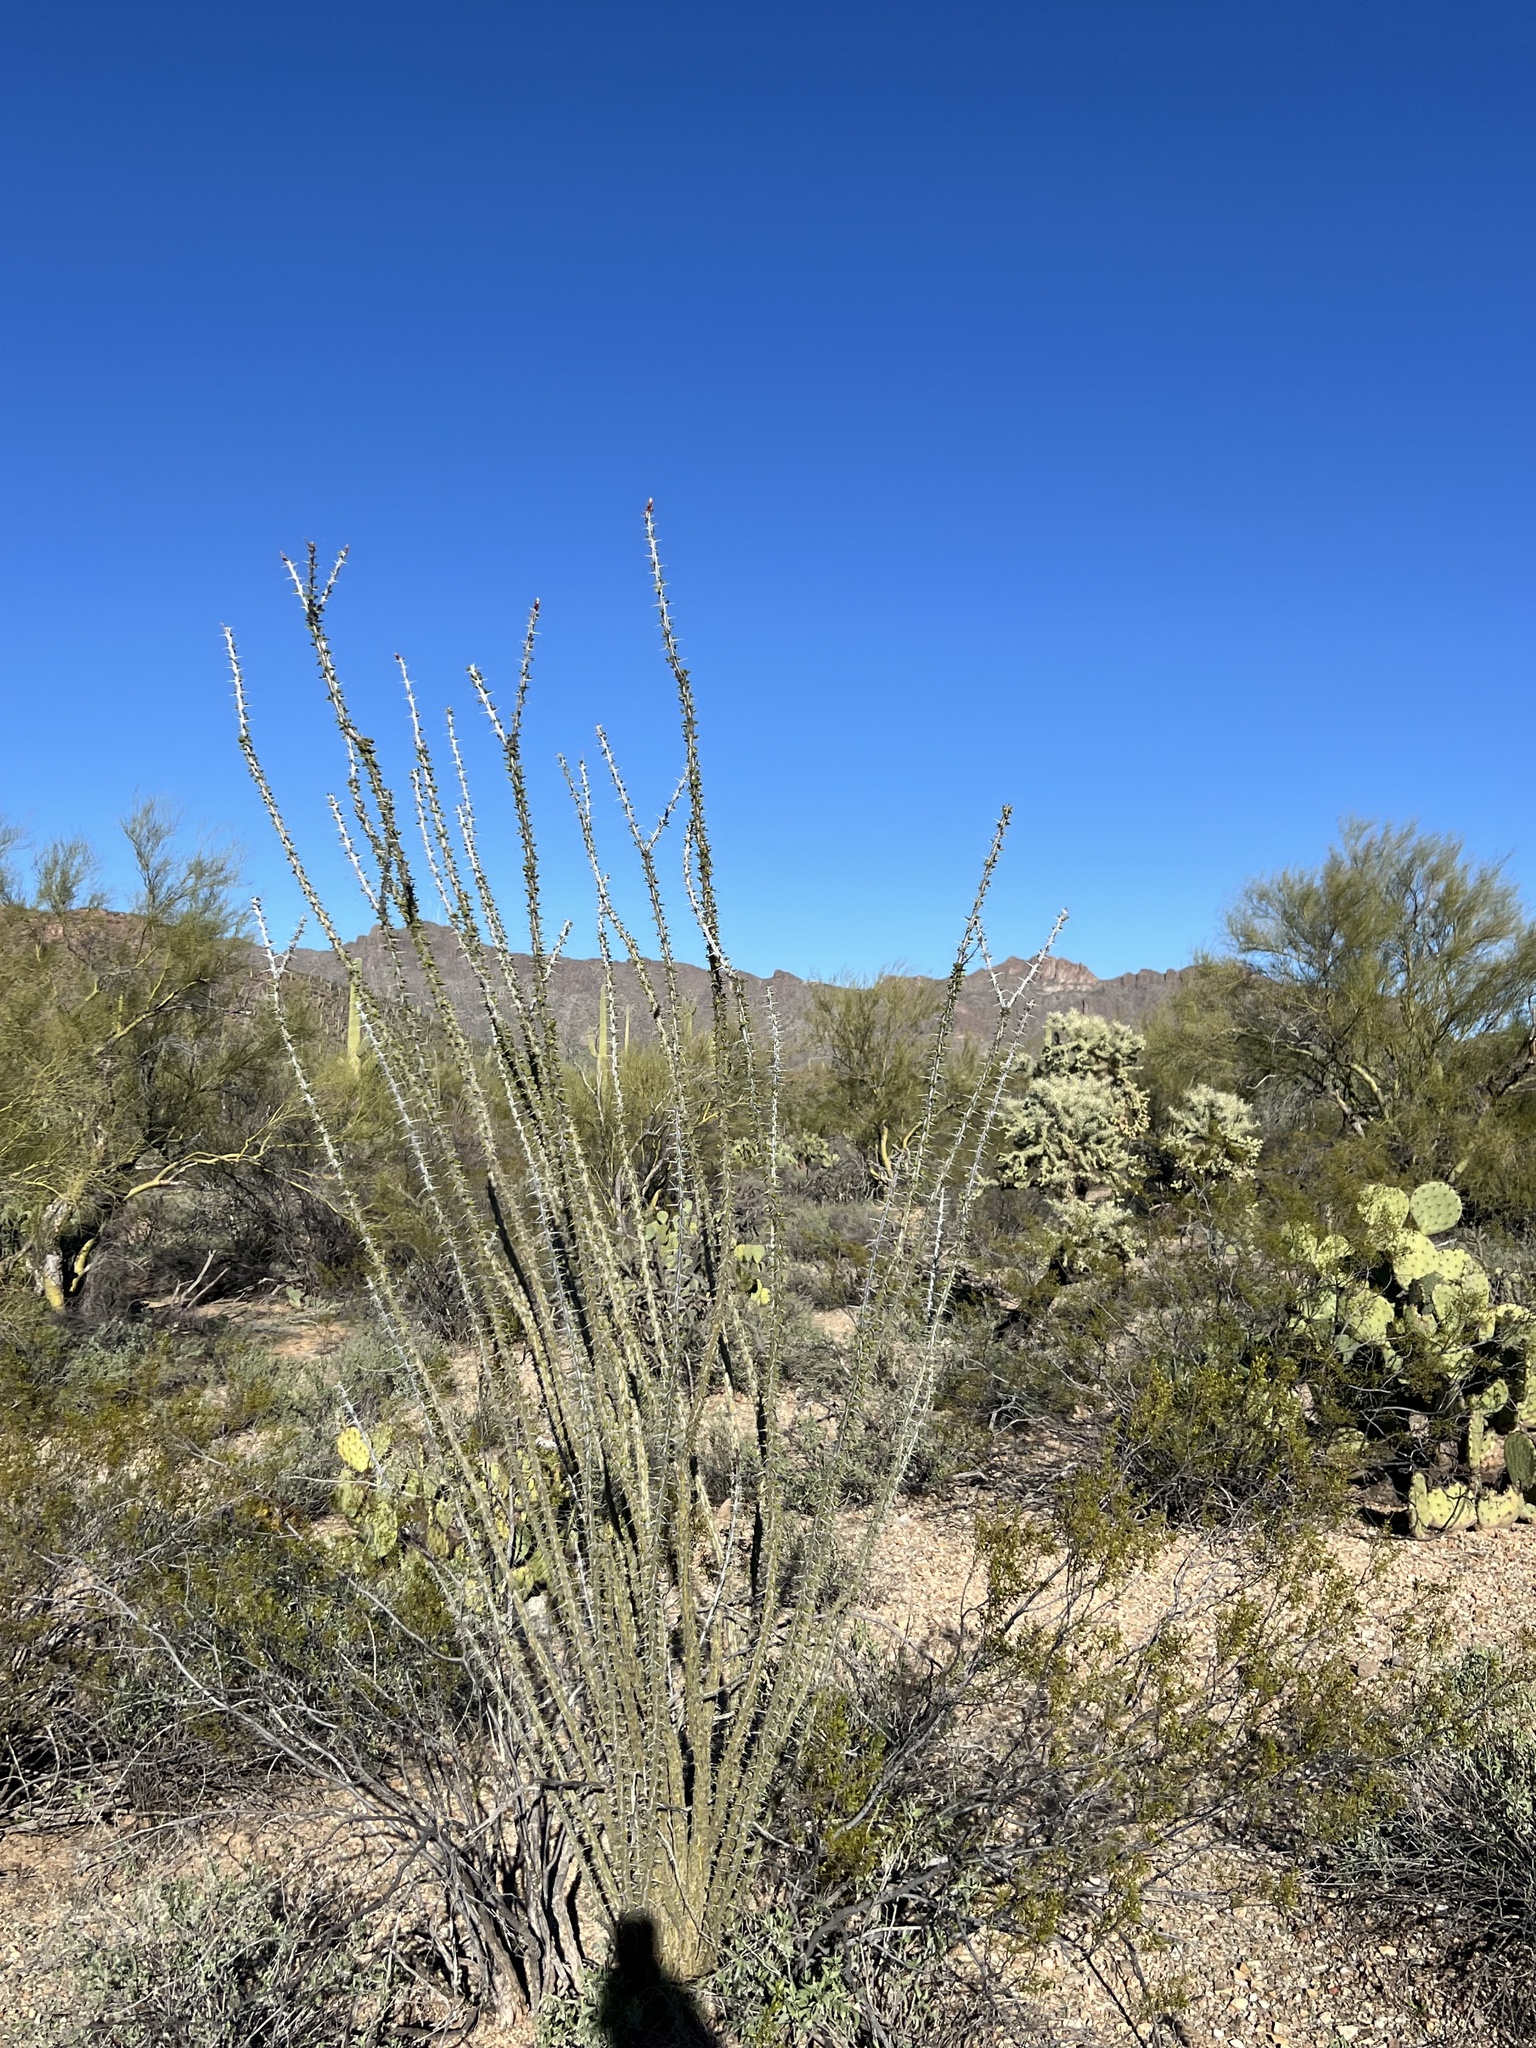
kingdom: Plantae
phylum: Tracheophyta
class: Magnoliopsida
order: Ericales
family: Fouquieriaceae
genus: Fouquieria
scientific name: Fouquieria splendens
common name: Vine-cactus
